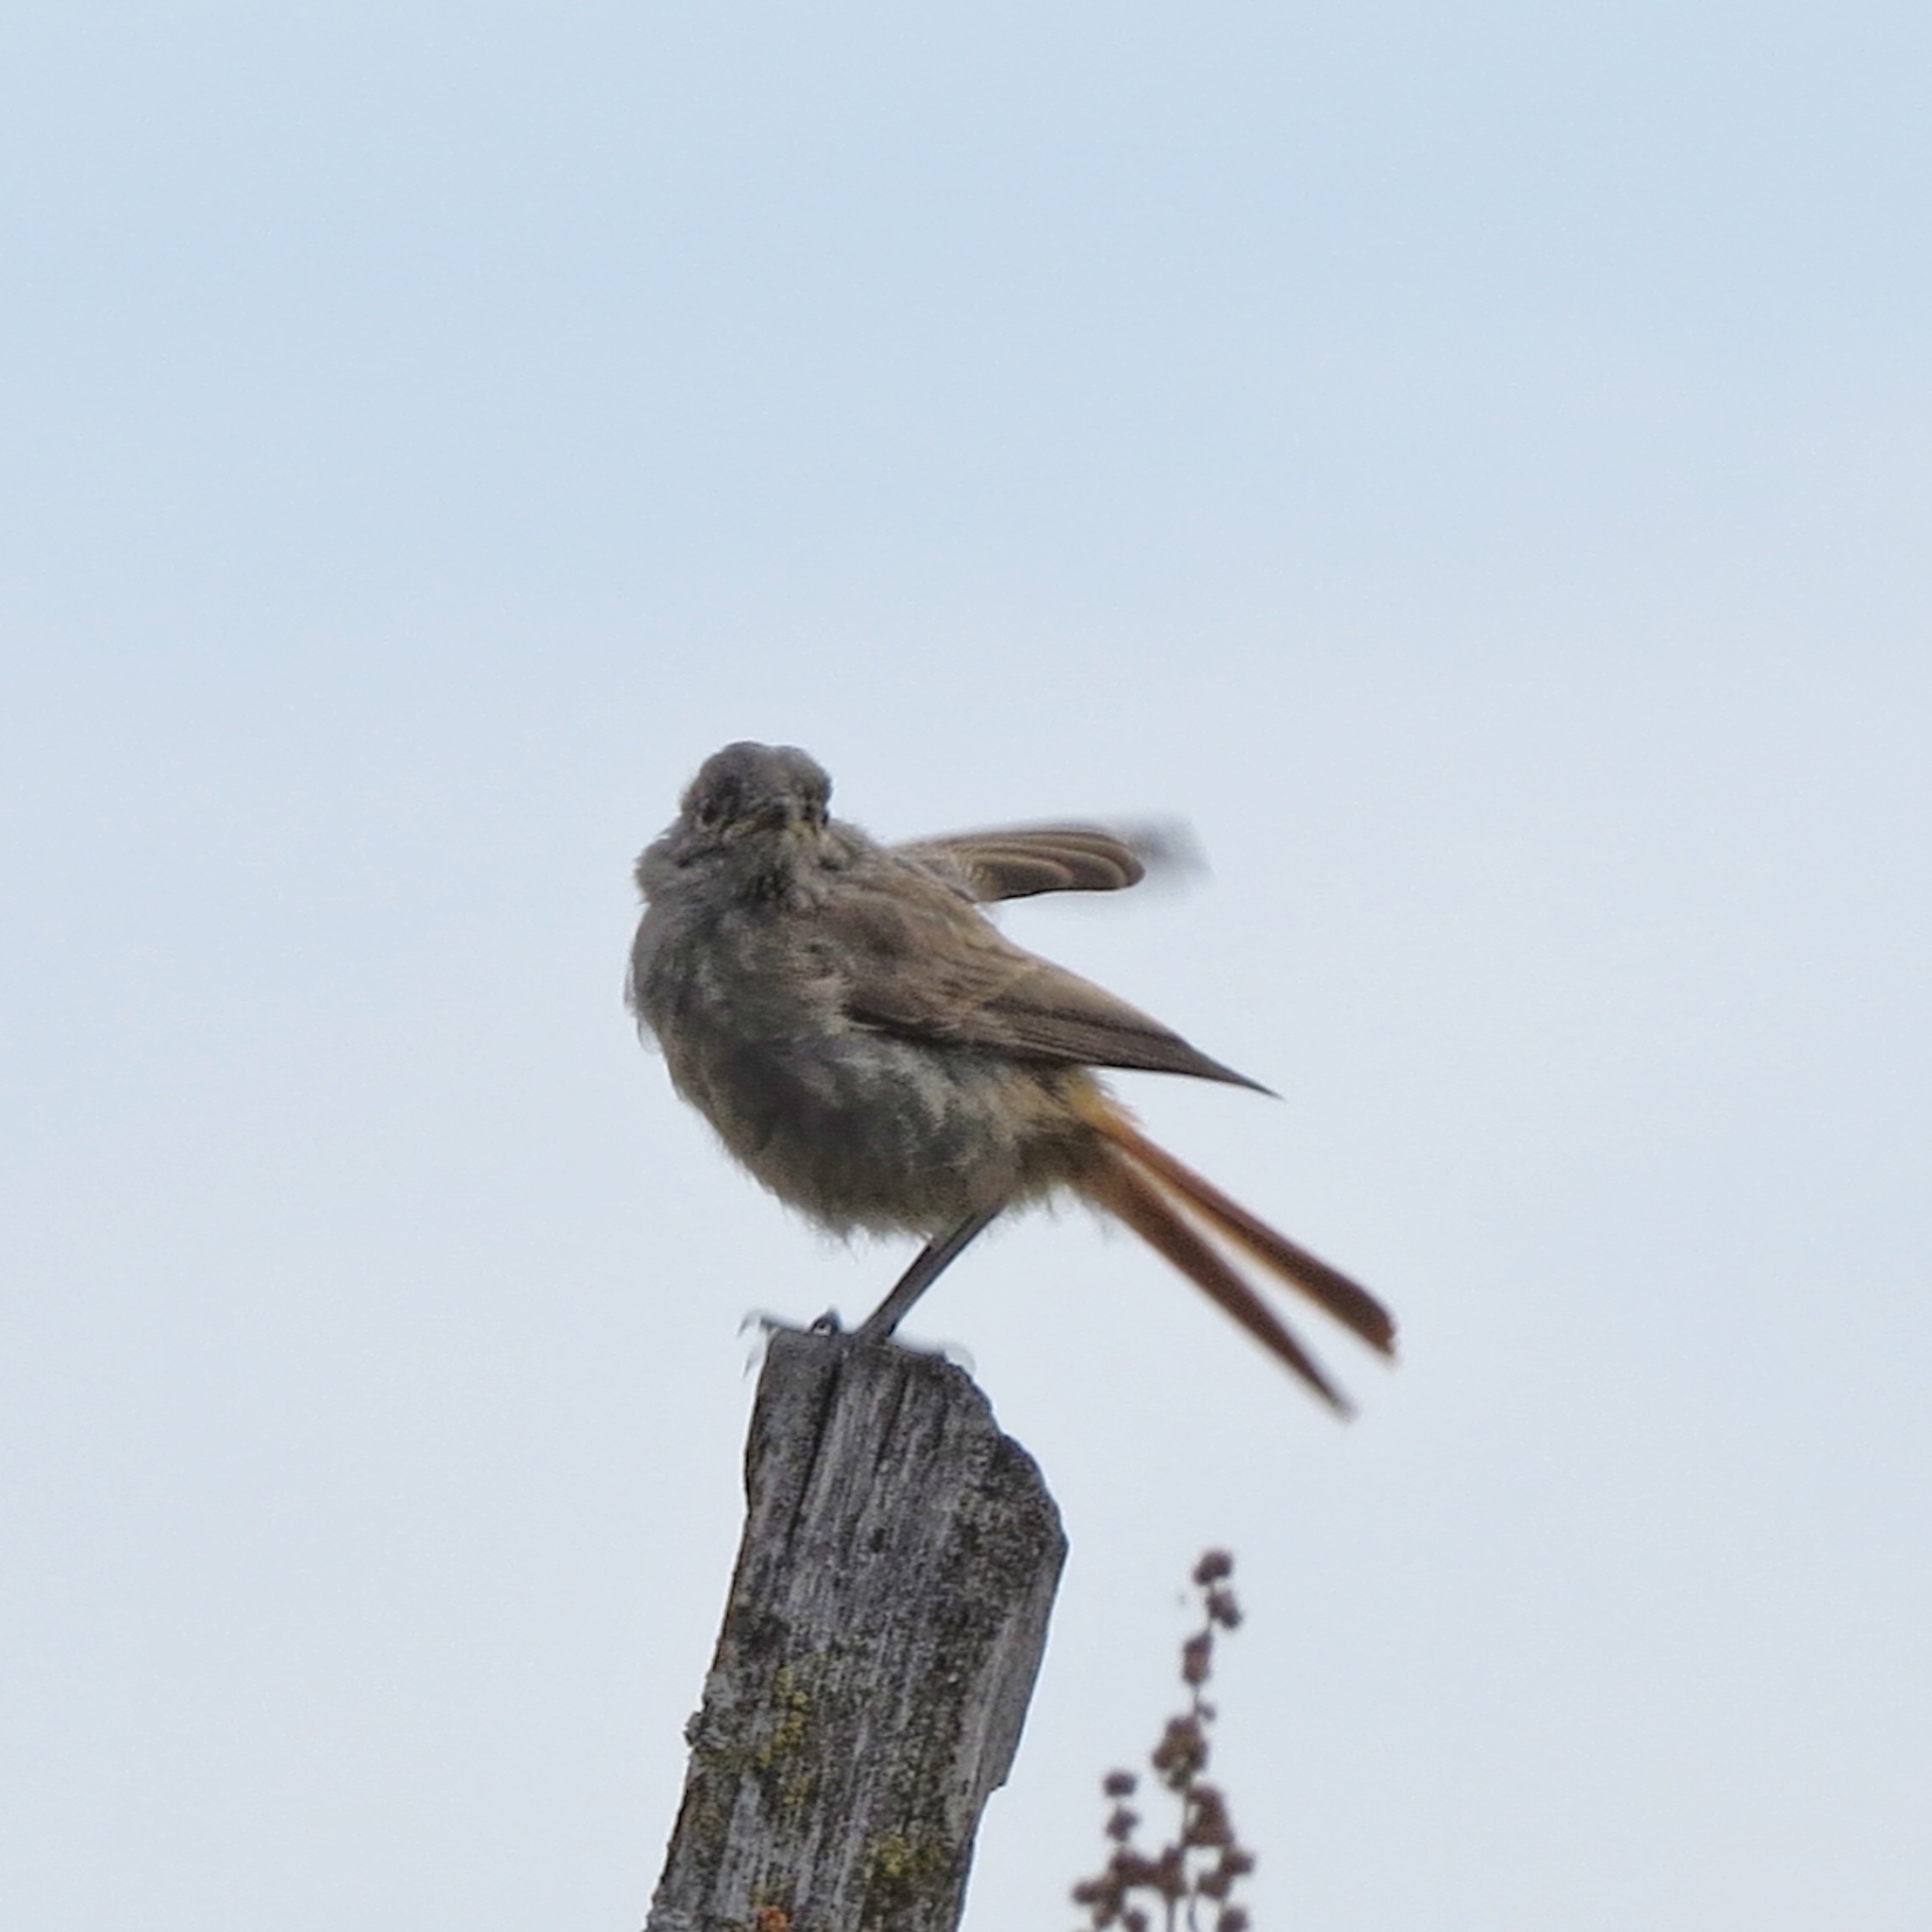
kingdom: Animalia
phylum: Chordata
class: Aves
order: Passeriformes
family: Muscicapidae
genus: Phoenicurus
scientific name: Phoenicurus ochruros
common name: Black redstart
